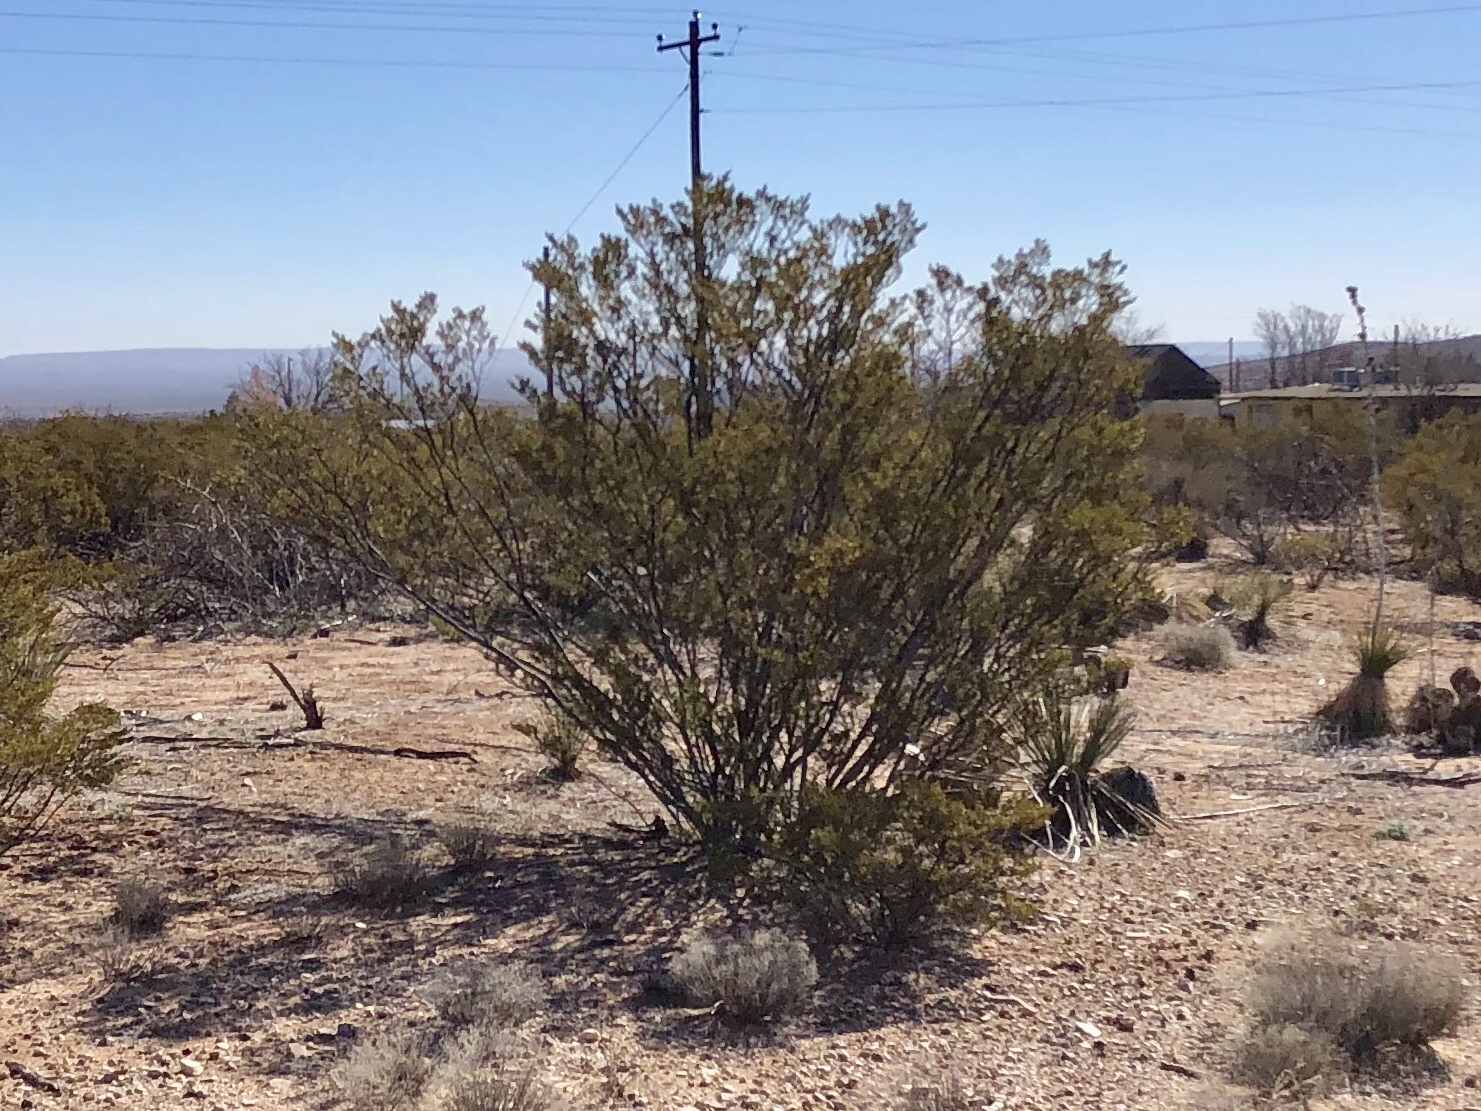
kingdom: Plantae
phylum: Tracheophyta
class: Magnoliopsida
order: Zygophyllales
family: Zygophyllaceae
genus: Larrea
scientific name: Larrea tridentata
